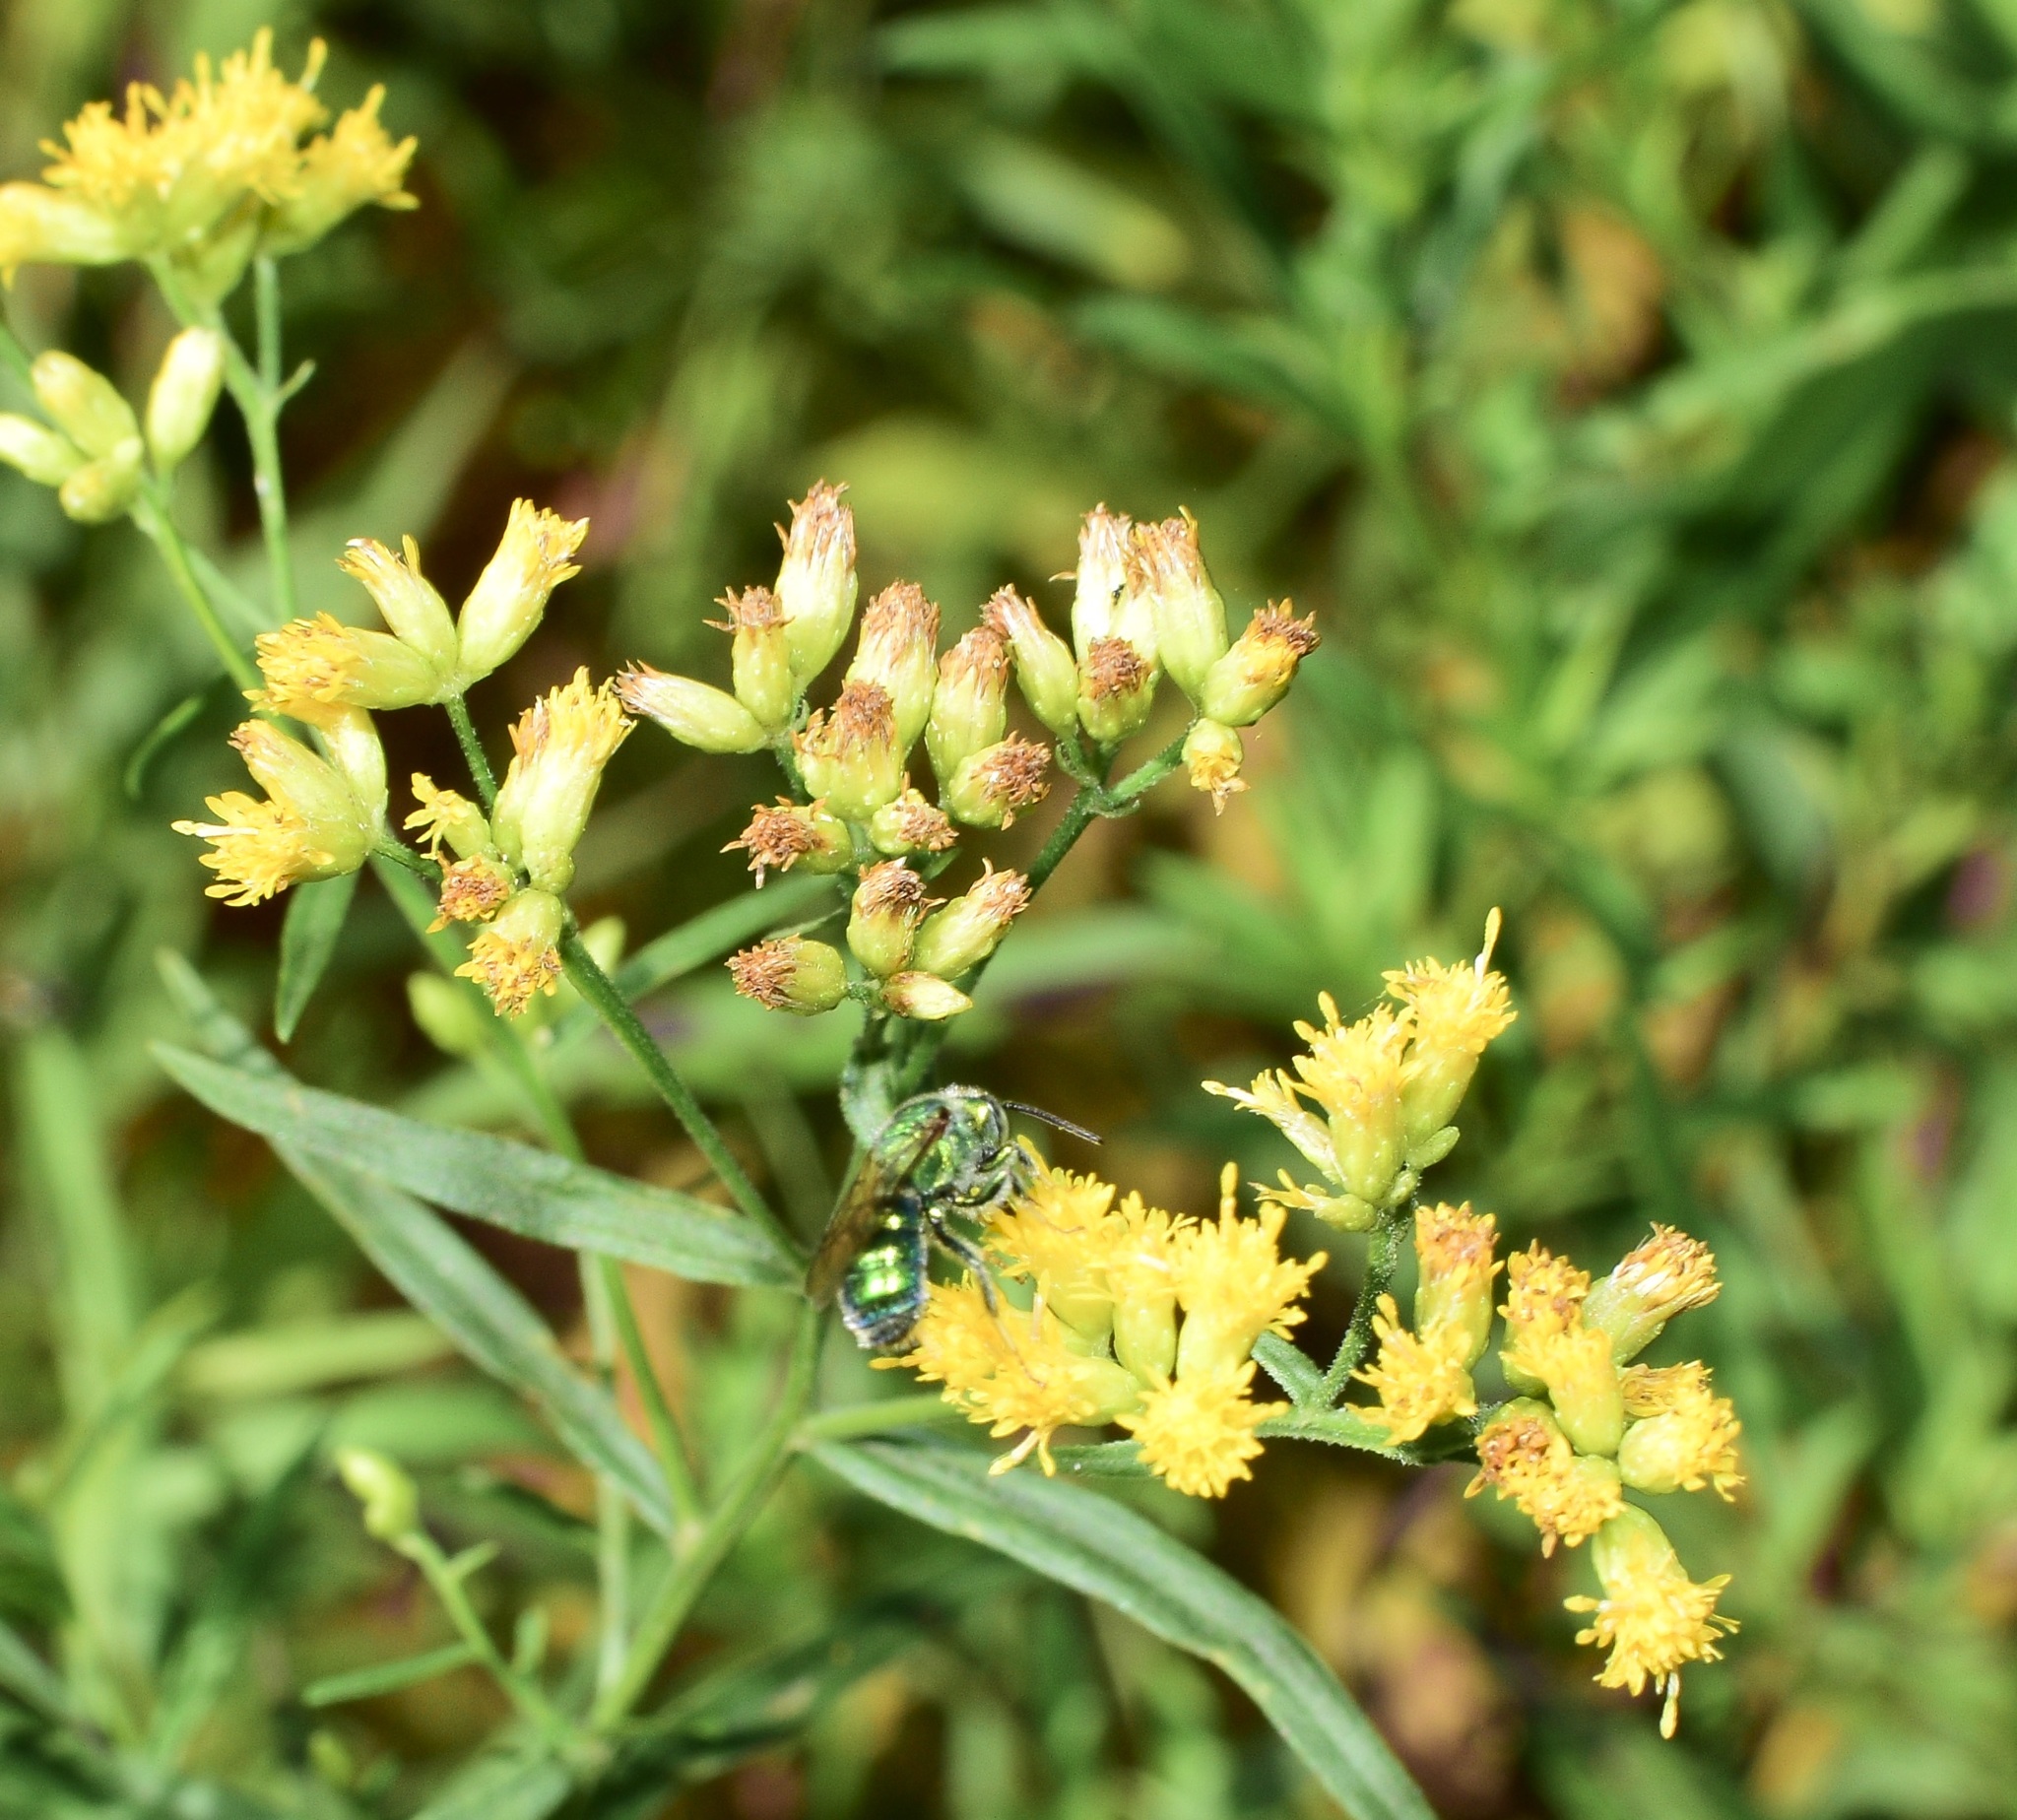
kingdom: Animalia
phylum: Arthropoda
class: Insecta
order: Hymenoptera
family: Halictidae
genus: Augochloropsis
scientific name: Augochloropsis viridula
